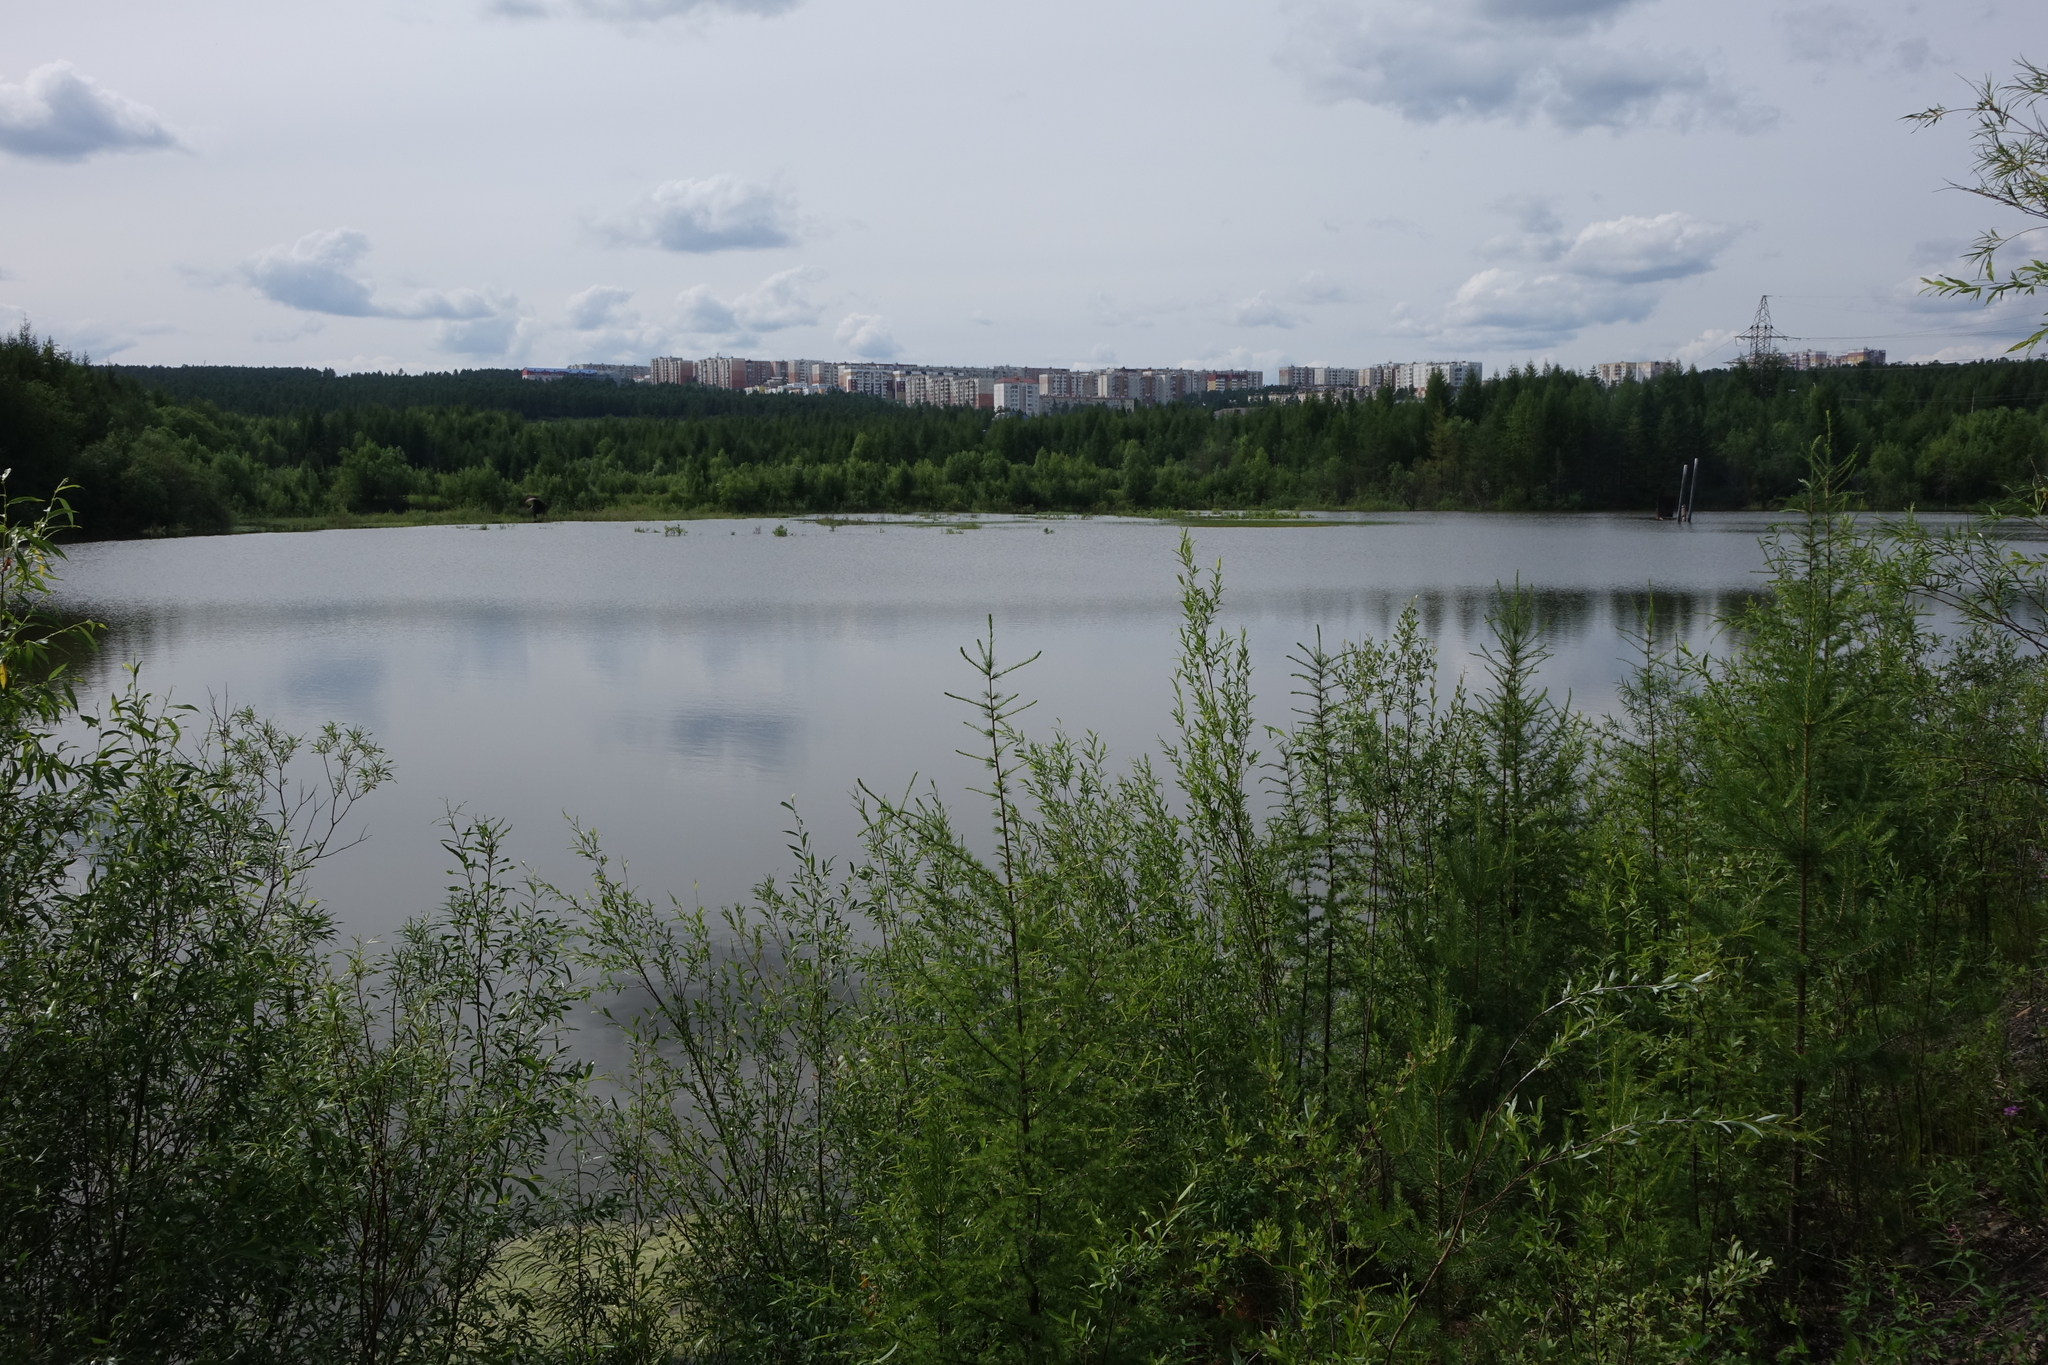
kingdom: Plantae
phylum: Tracheophyta
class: Pinopsida
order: Pinales
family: Pinaceae
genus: Larix
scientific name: Larix gmelinii
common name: Dahurian larch
